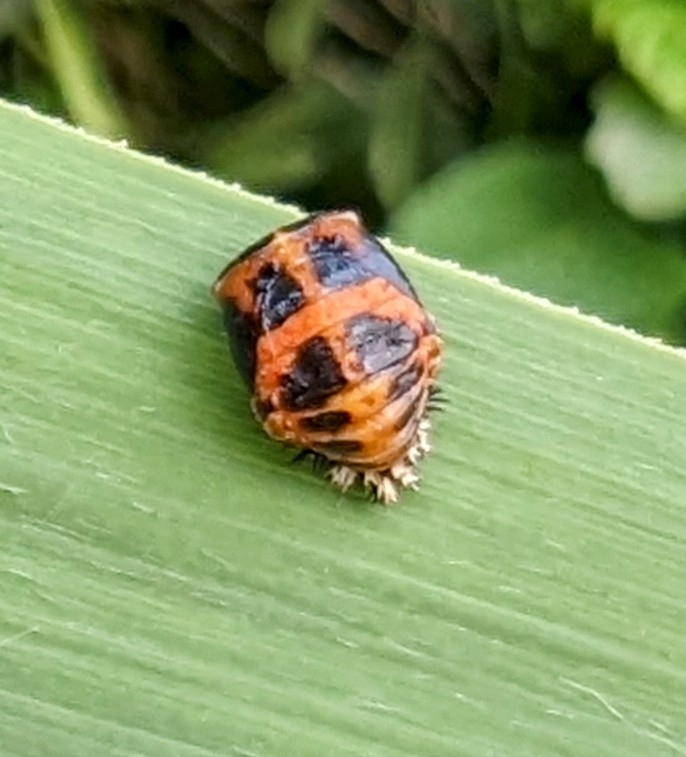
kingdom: Animalia
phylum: Arthropoda
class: Insecta
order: Coleoptera
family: Coccinellidae
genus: Harmonia
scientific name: Harmonia axyridis
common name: Harlequin ladybird
